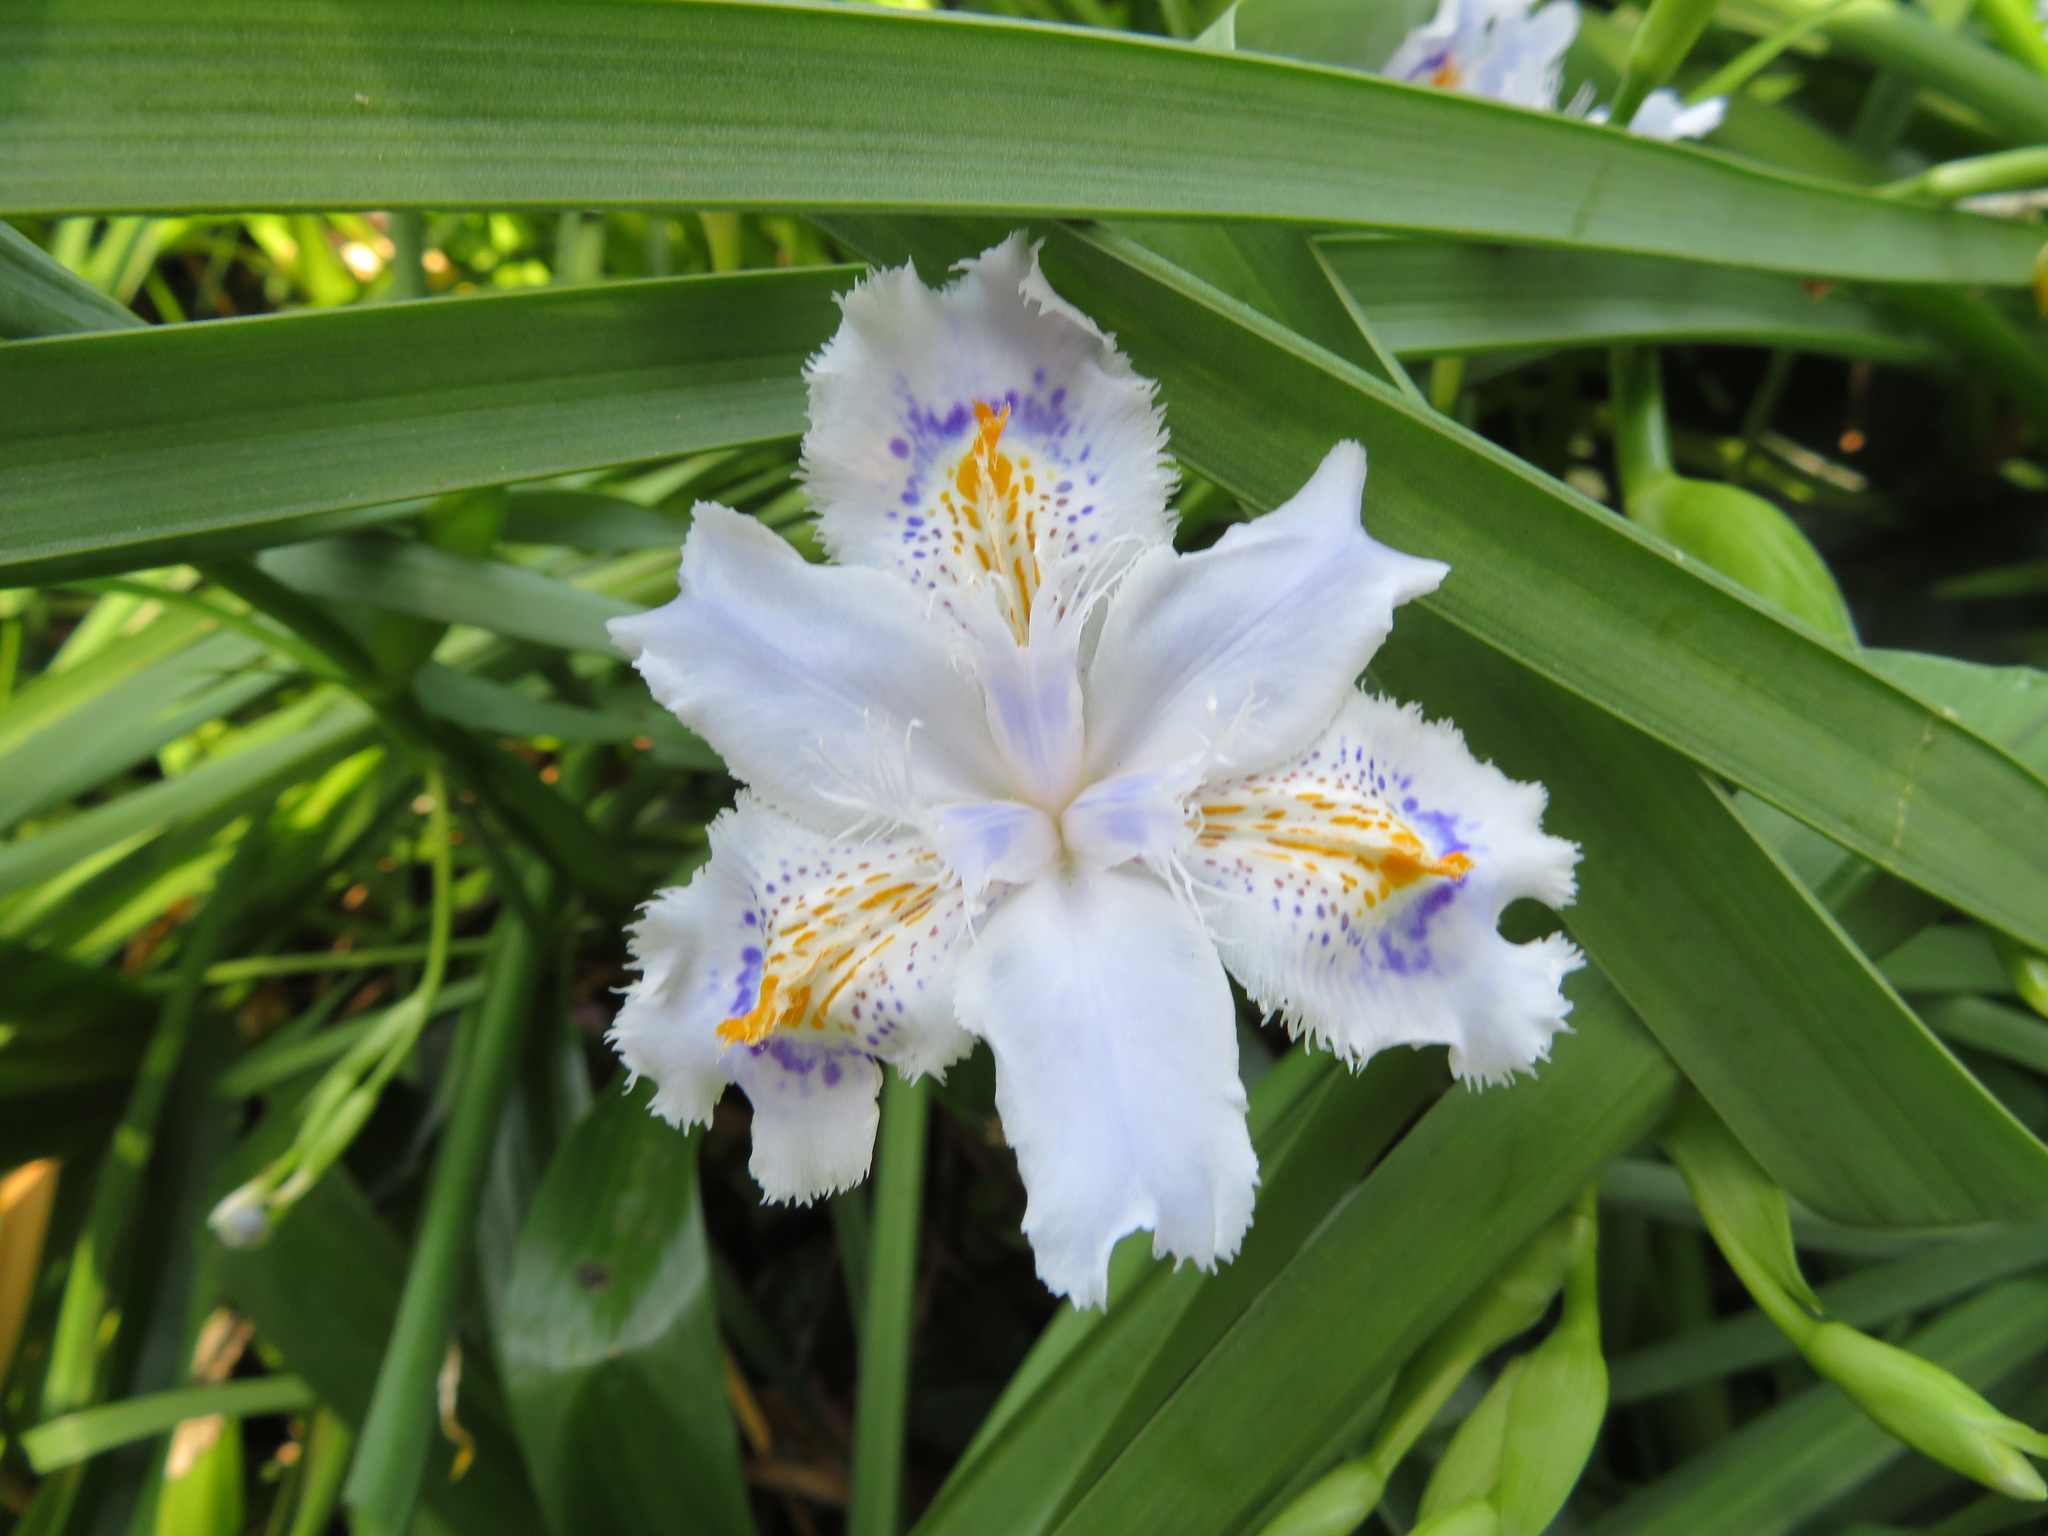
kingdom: Plantae
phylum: Tracheophyta
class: Liliopsida
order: Asparagales
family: Iridaceae
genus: Iris
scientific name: Iris japonica
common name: Butterfly-flower
